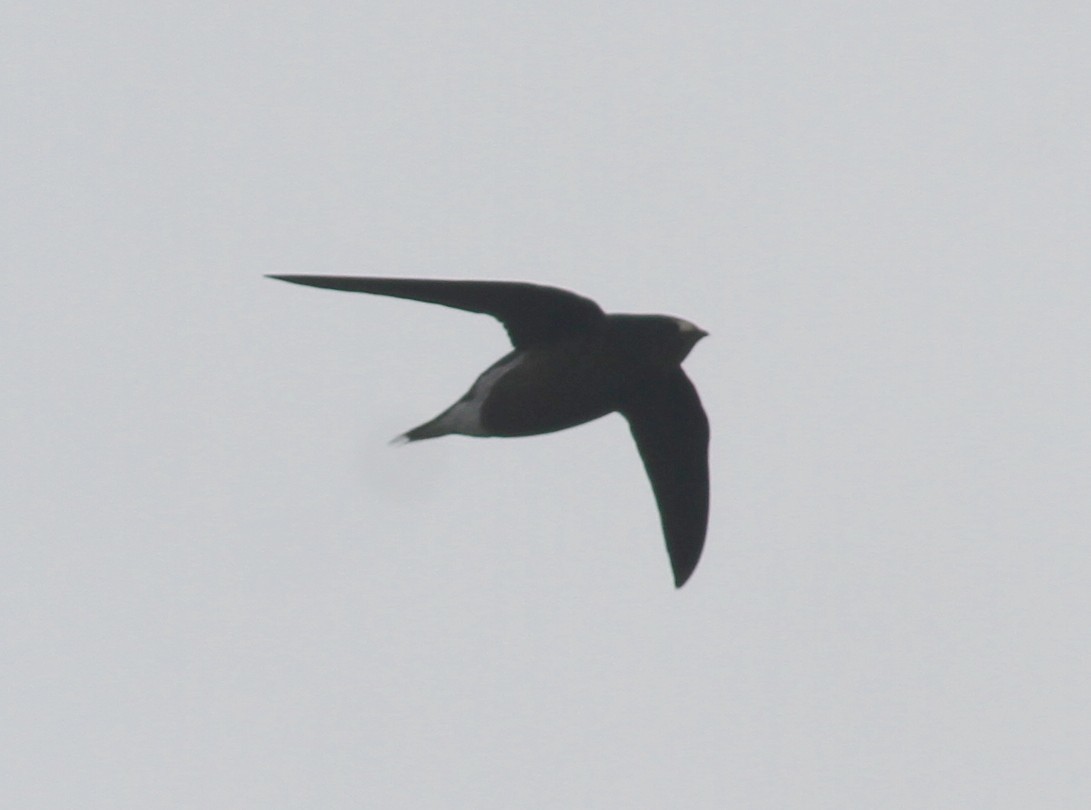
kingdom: Animalia
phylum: Chordata
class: Aves
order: Apodiformes
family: Apodidae
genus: Hirundapus
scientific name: Hirundapus giganteus
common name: Brown-backed needletail
